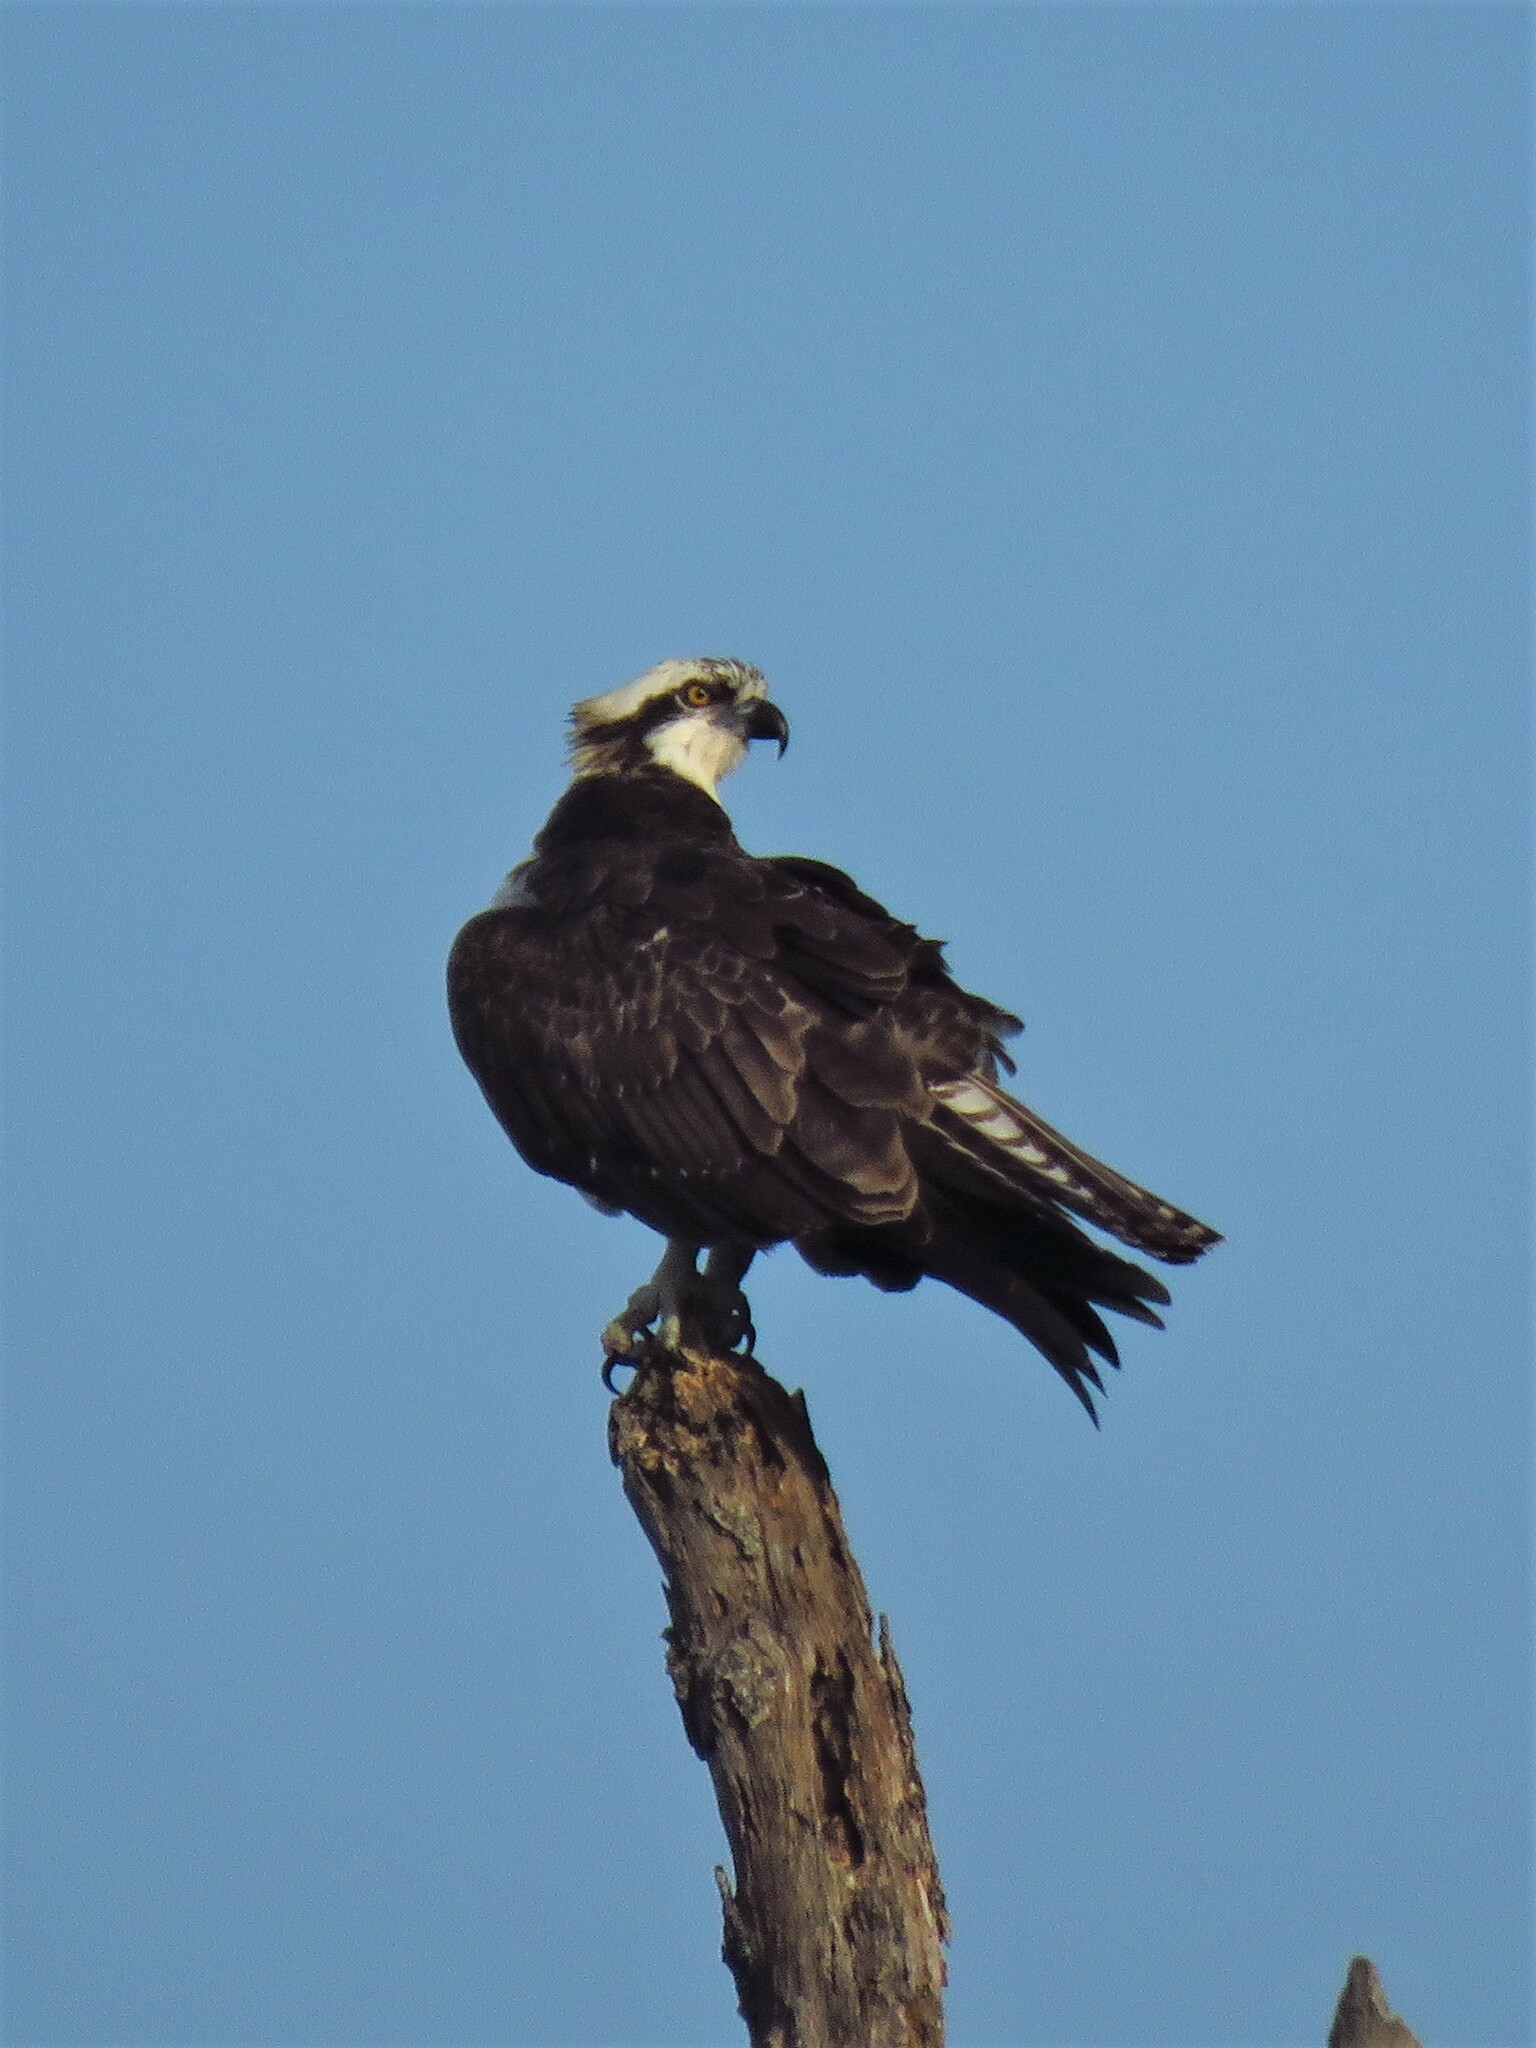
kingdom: Animalia
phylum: Chordata
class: Aves
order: Accipitriformes
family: Pandionidae
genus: Pandion
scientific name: Pandion haliaetus
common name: Osprey
